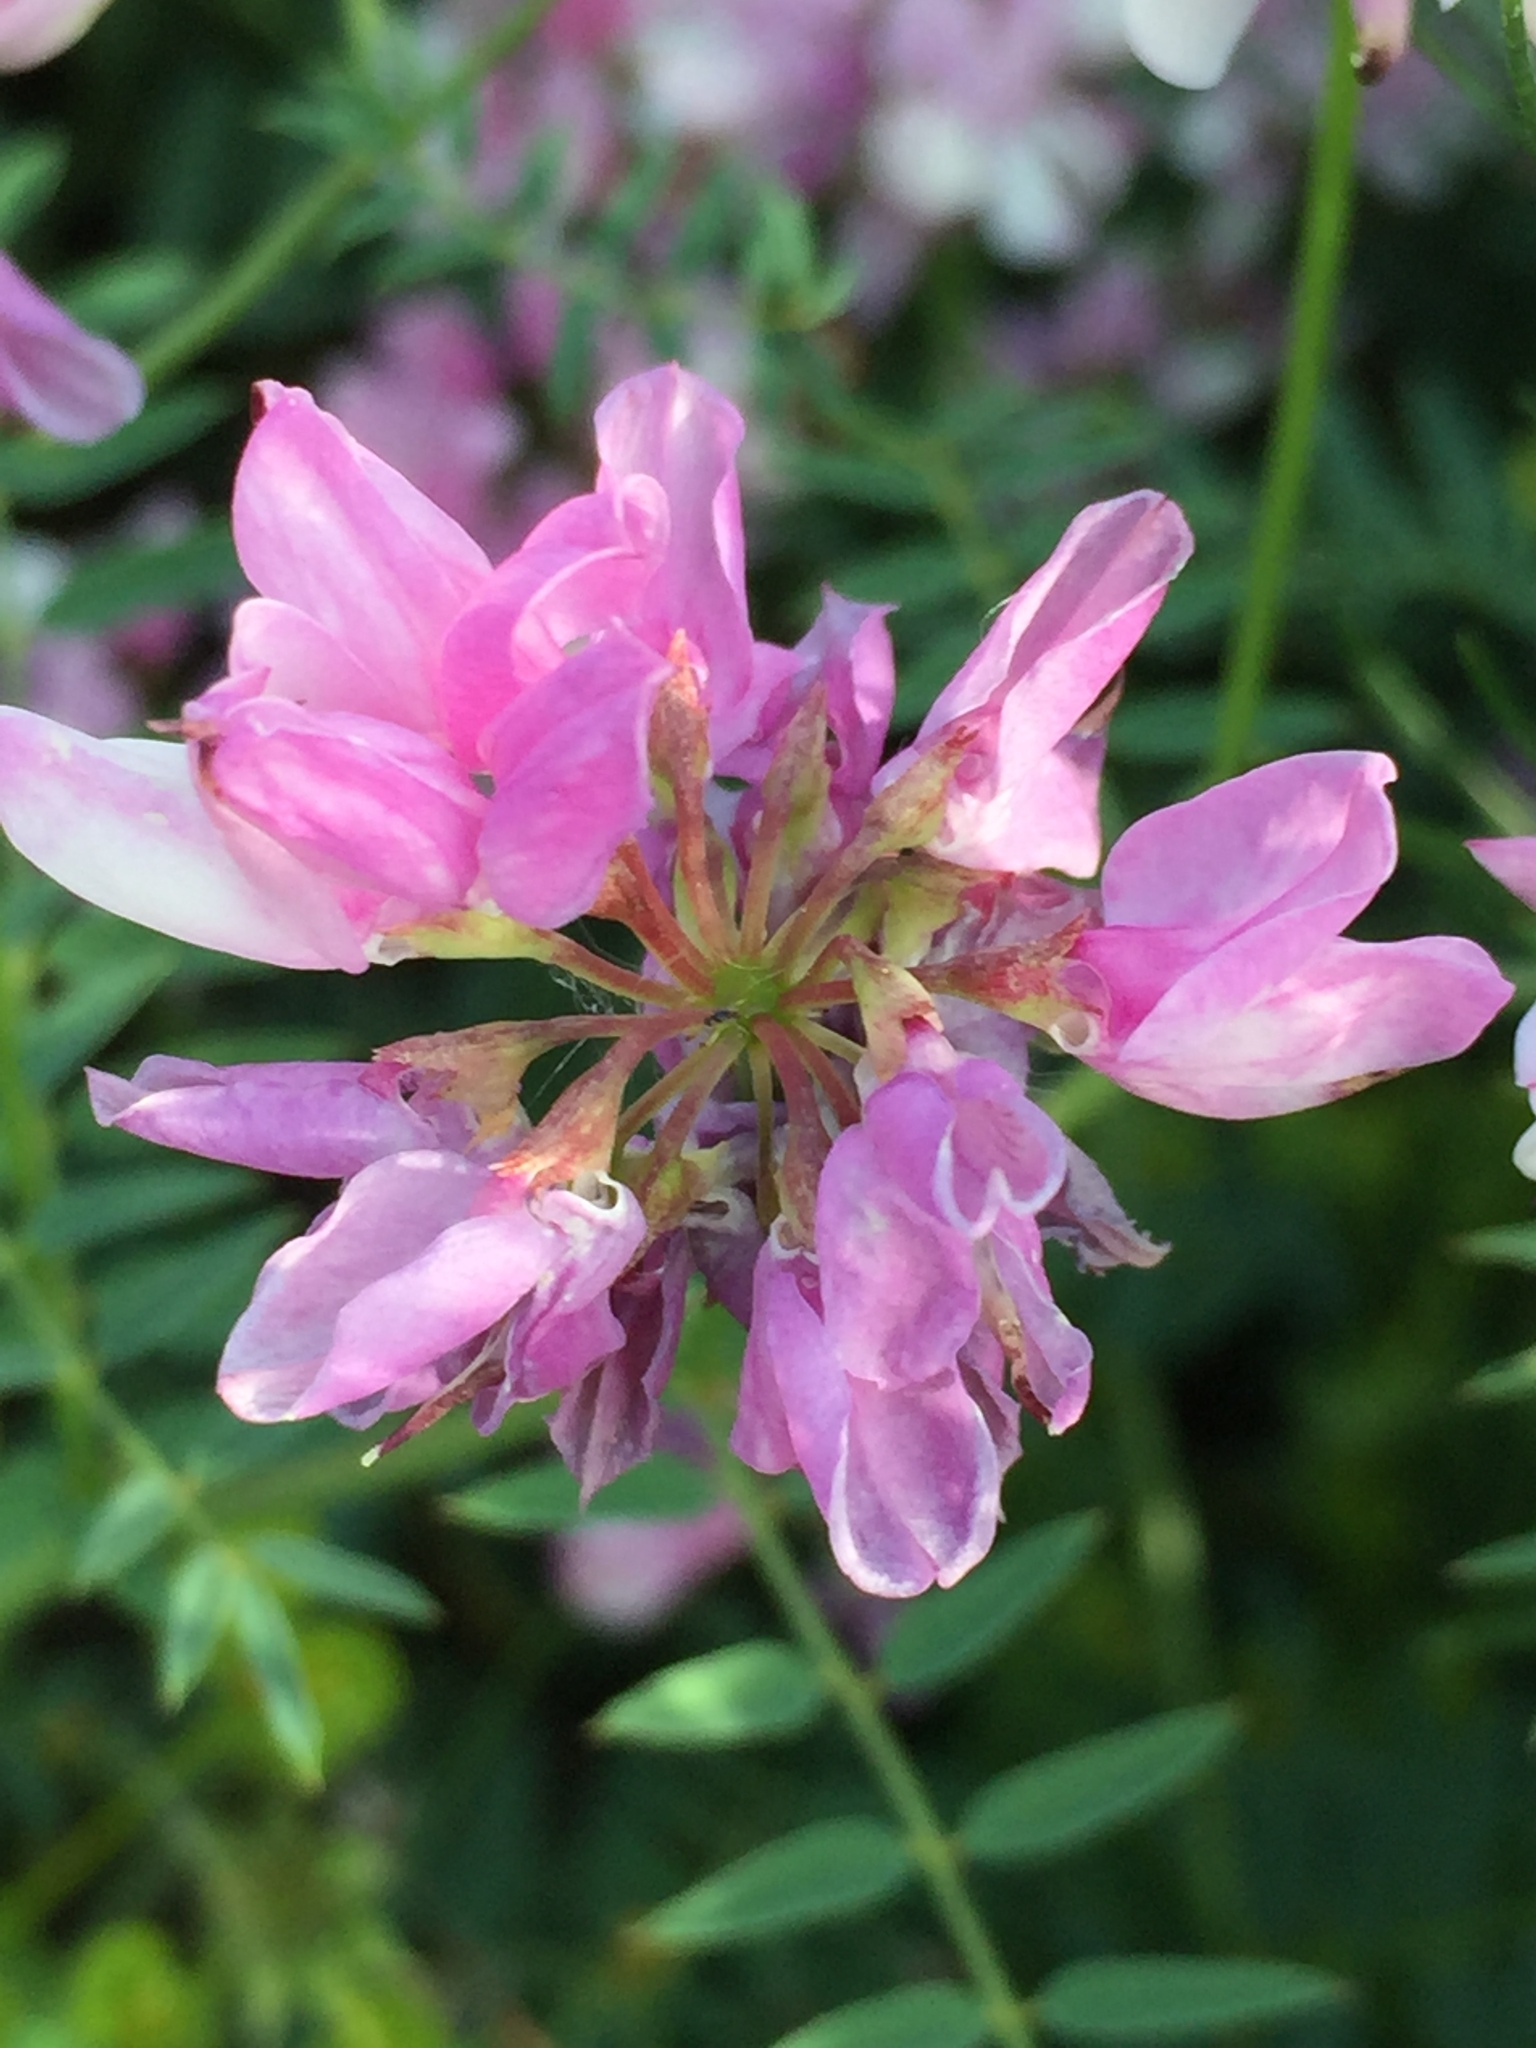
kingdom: Plantae
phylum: Tracheophyta
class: Magnoliopsida
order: Fabales
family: Fabaceae
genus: Coronilla
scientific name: Coronilla varia
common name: Crownvetch
